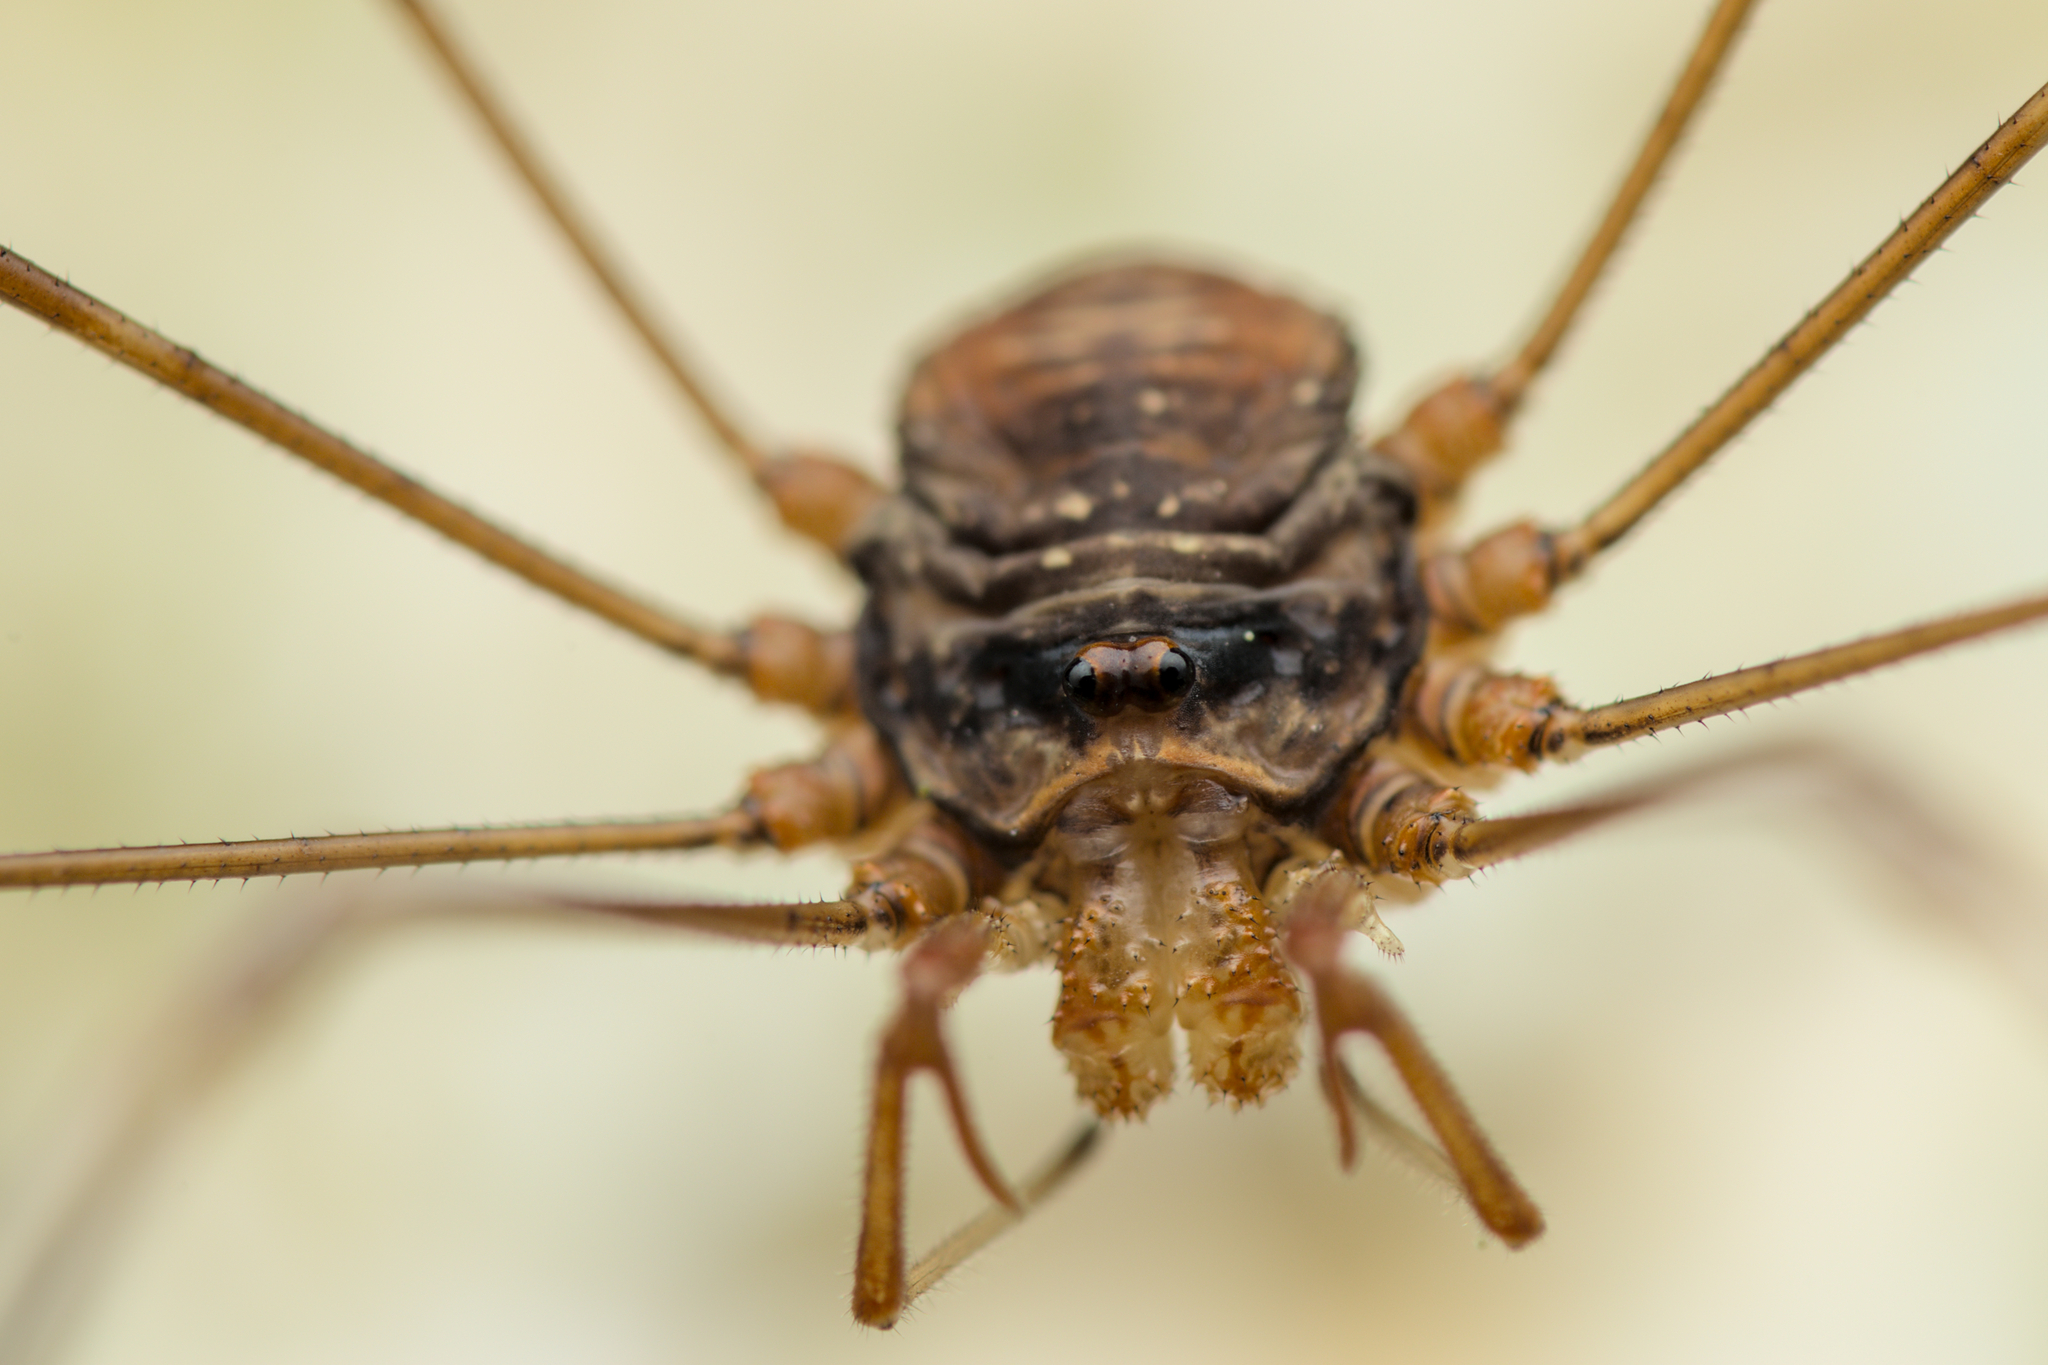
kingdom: Animalia
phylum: Arthropoda
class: Arachnida
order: Opiliones
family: Phalangiidae
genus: Dicranopalpus
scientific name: Dicranopalpus ramosus
